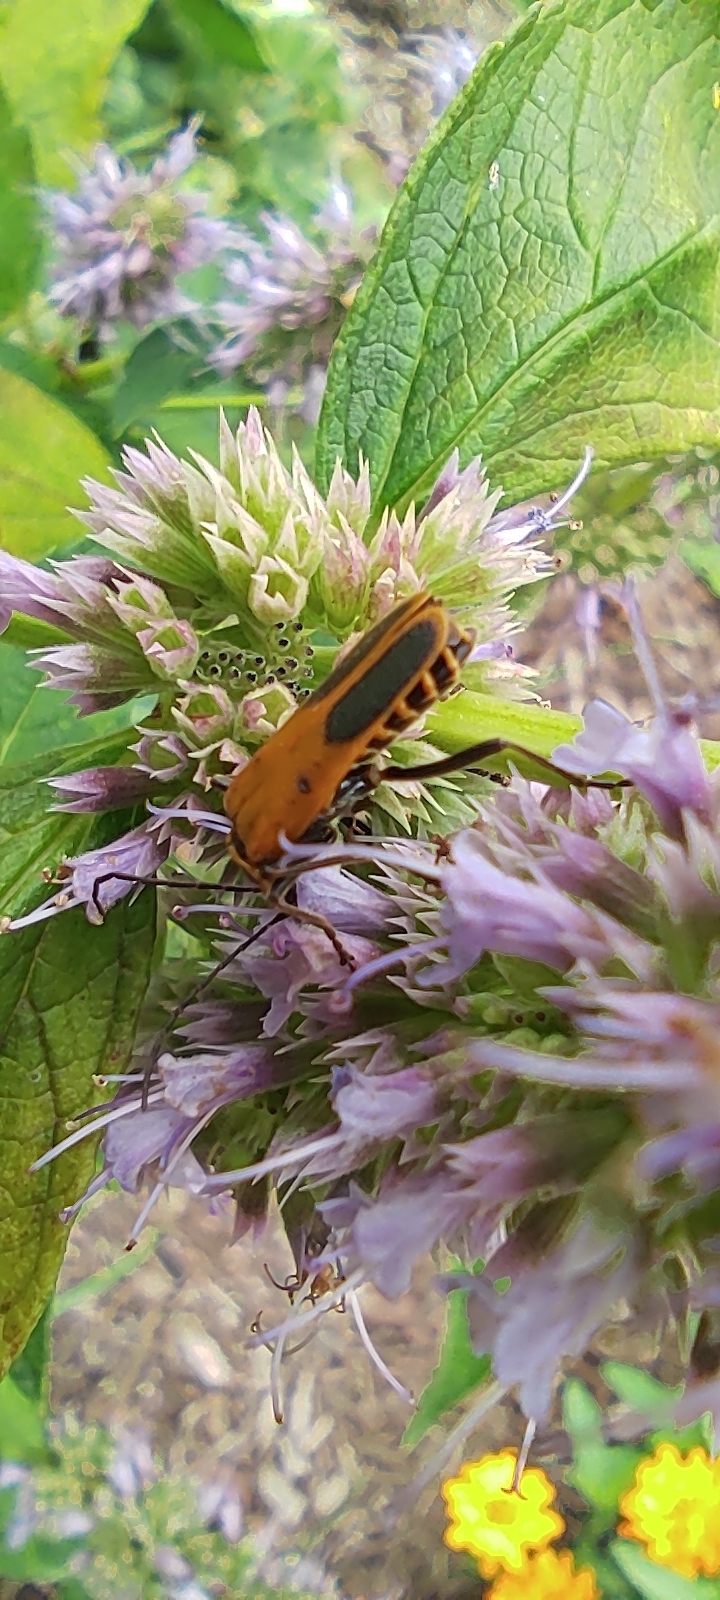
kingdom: Animalia
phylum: Arthropoda
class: Insecta
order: Coleoptera
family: Cantharidae
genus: Chauliognathus
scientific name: Chauliognathus pensylvanicus
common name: Goldenrod soldier beetle
